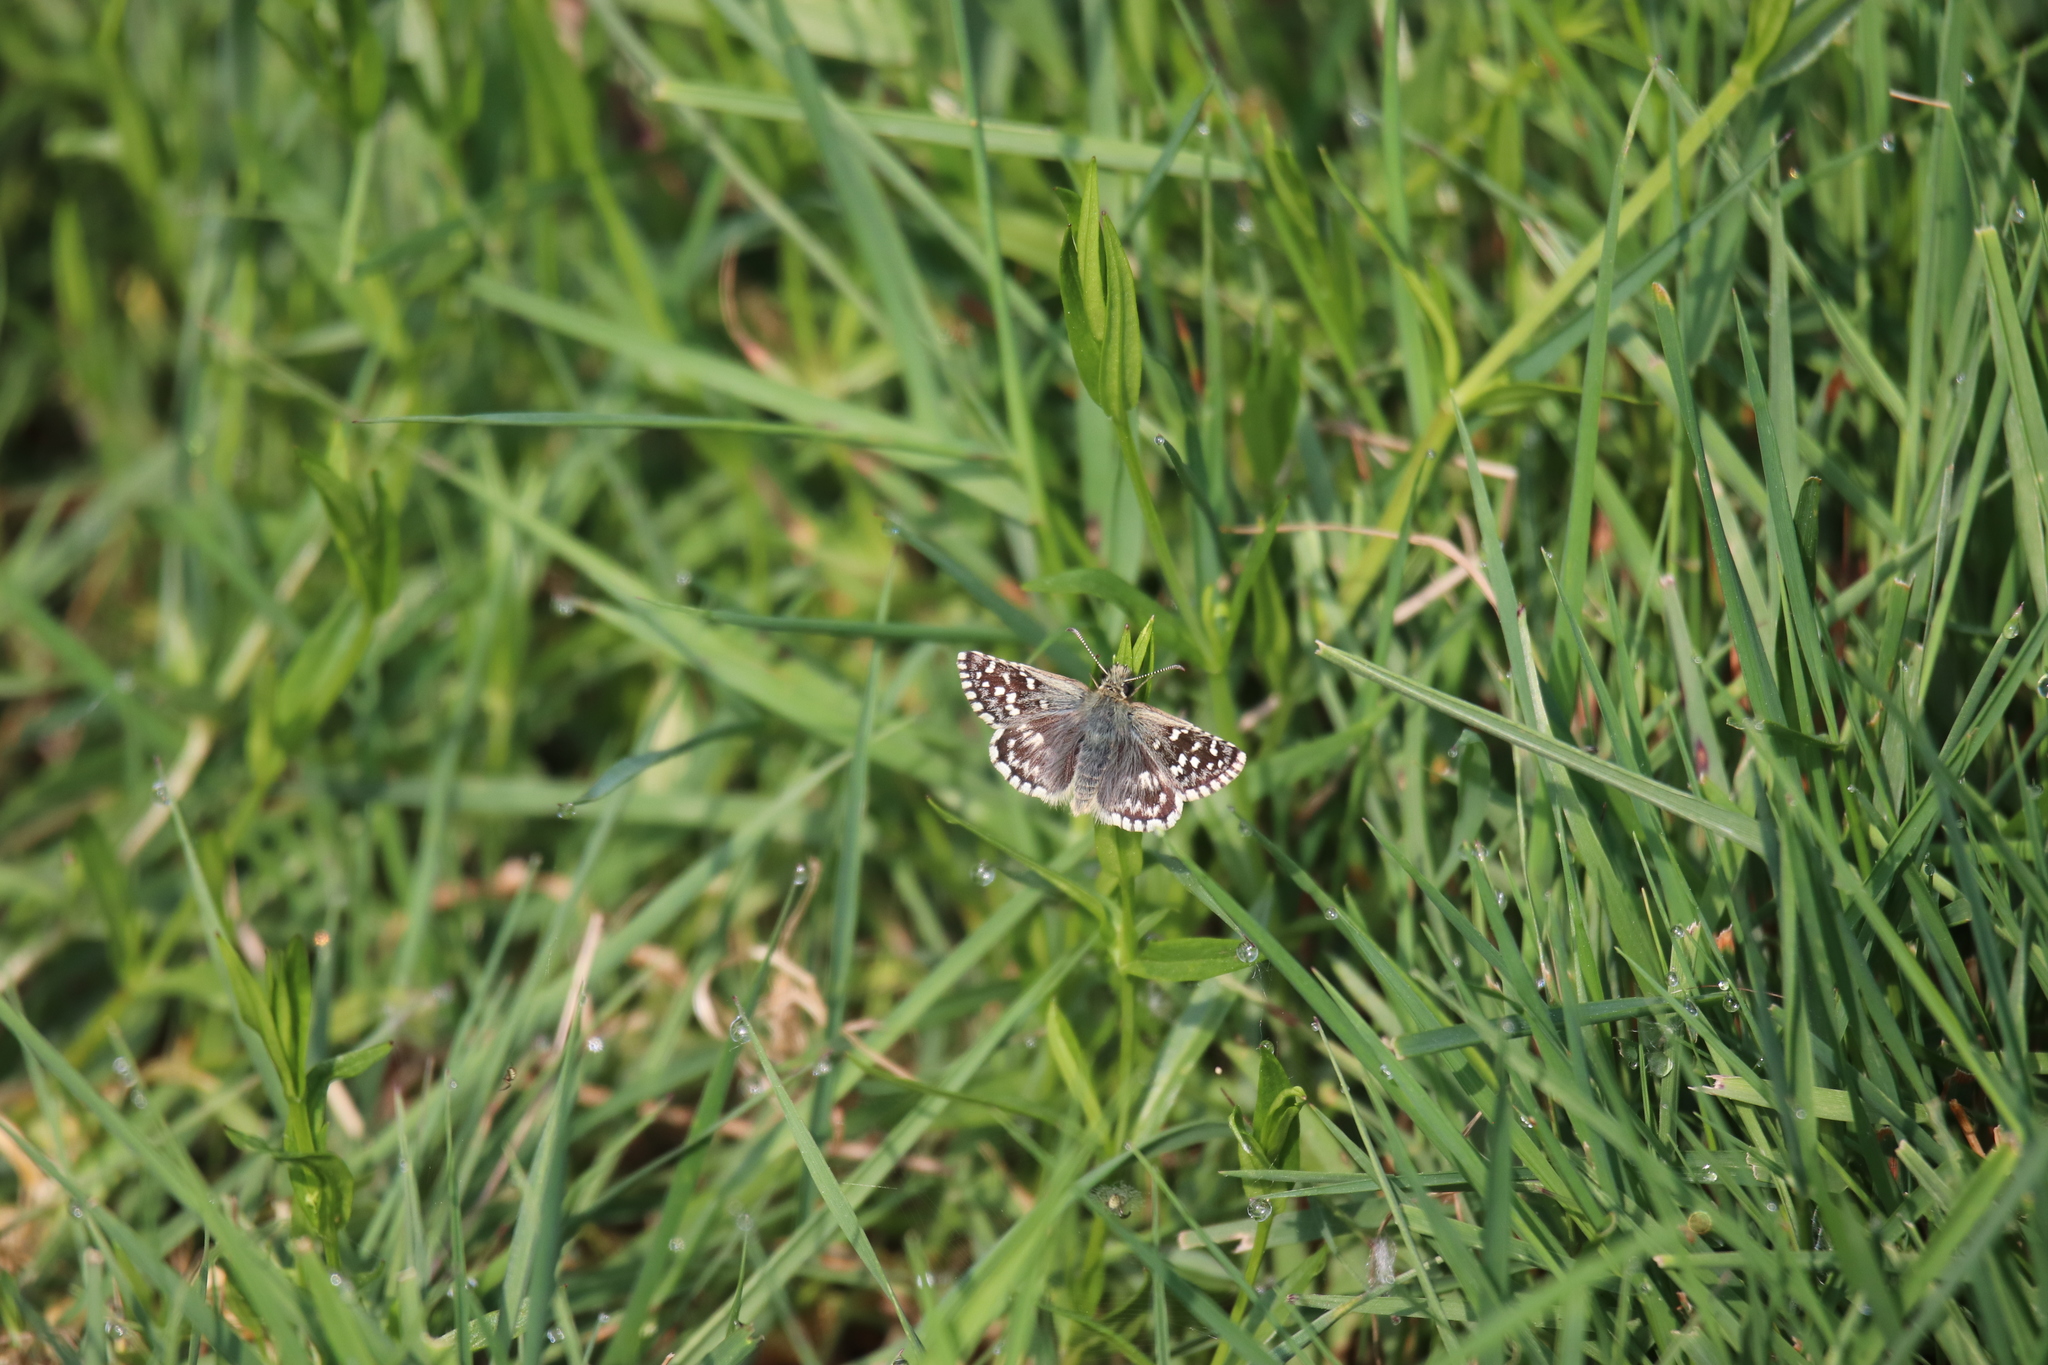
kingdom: Animalia
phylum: Arthropoda
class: Insecta
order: Lepidoptera
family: Hesperiidae
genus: Pyrgus
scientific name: Pyrgus malvoides
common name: Southern grizzled skipper
